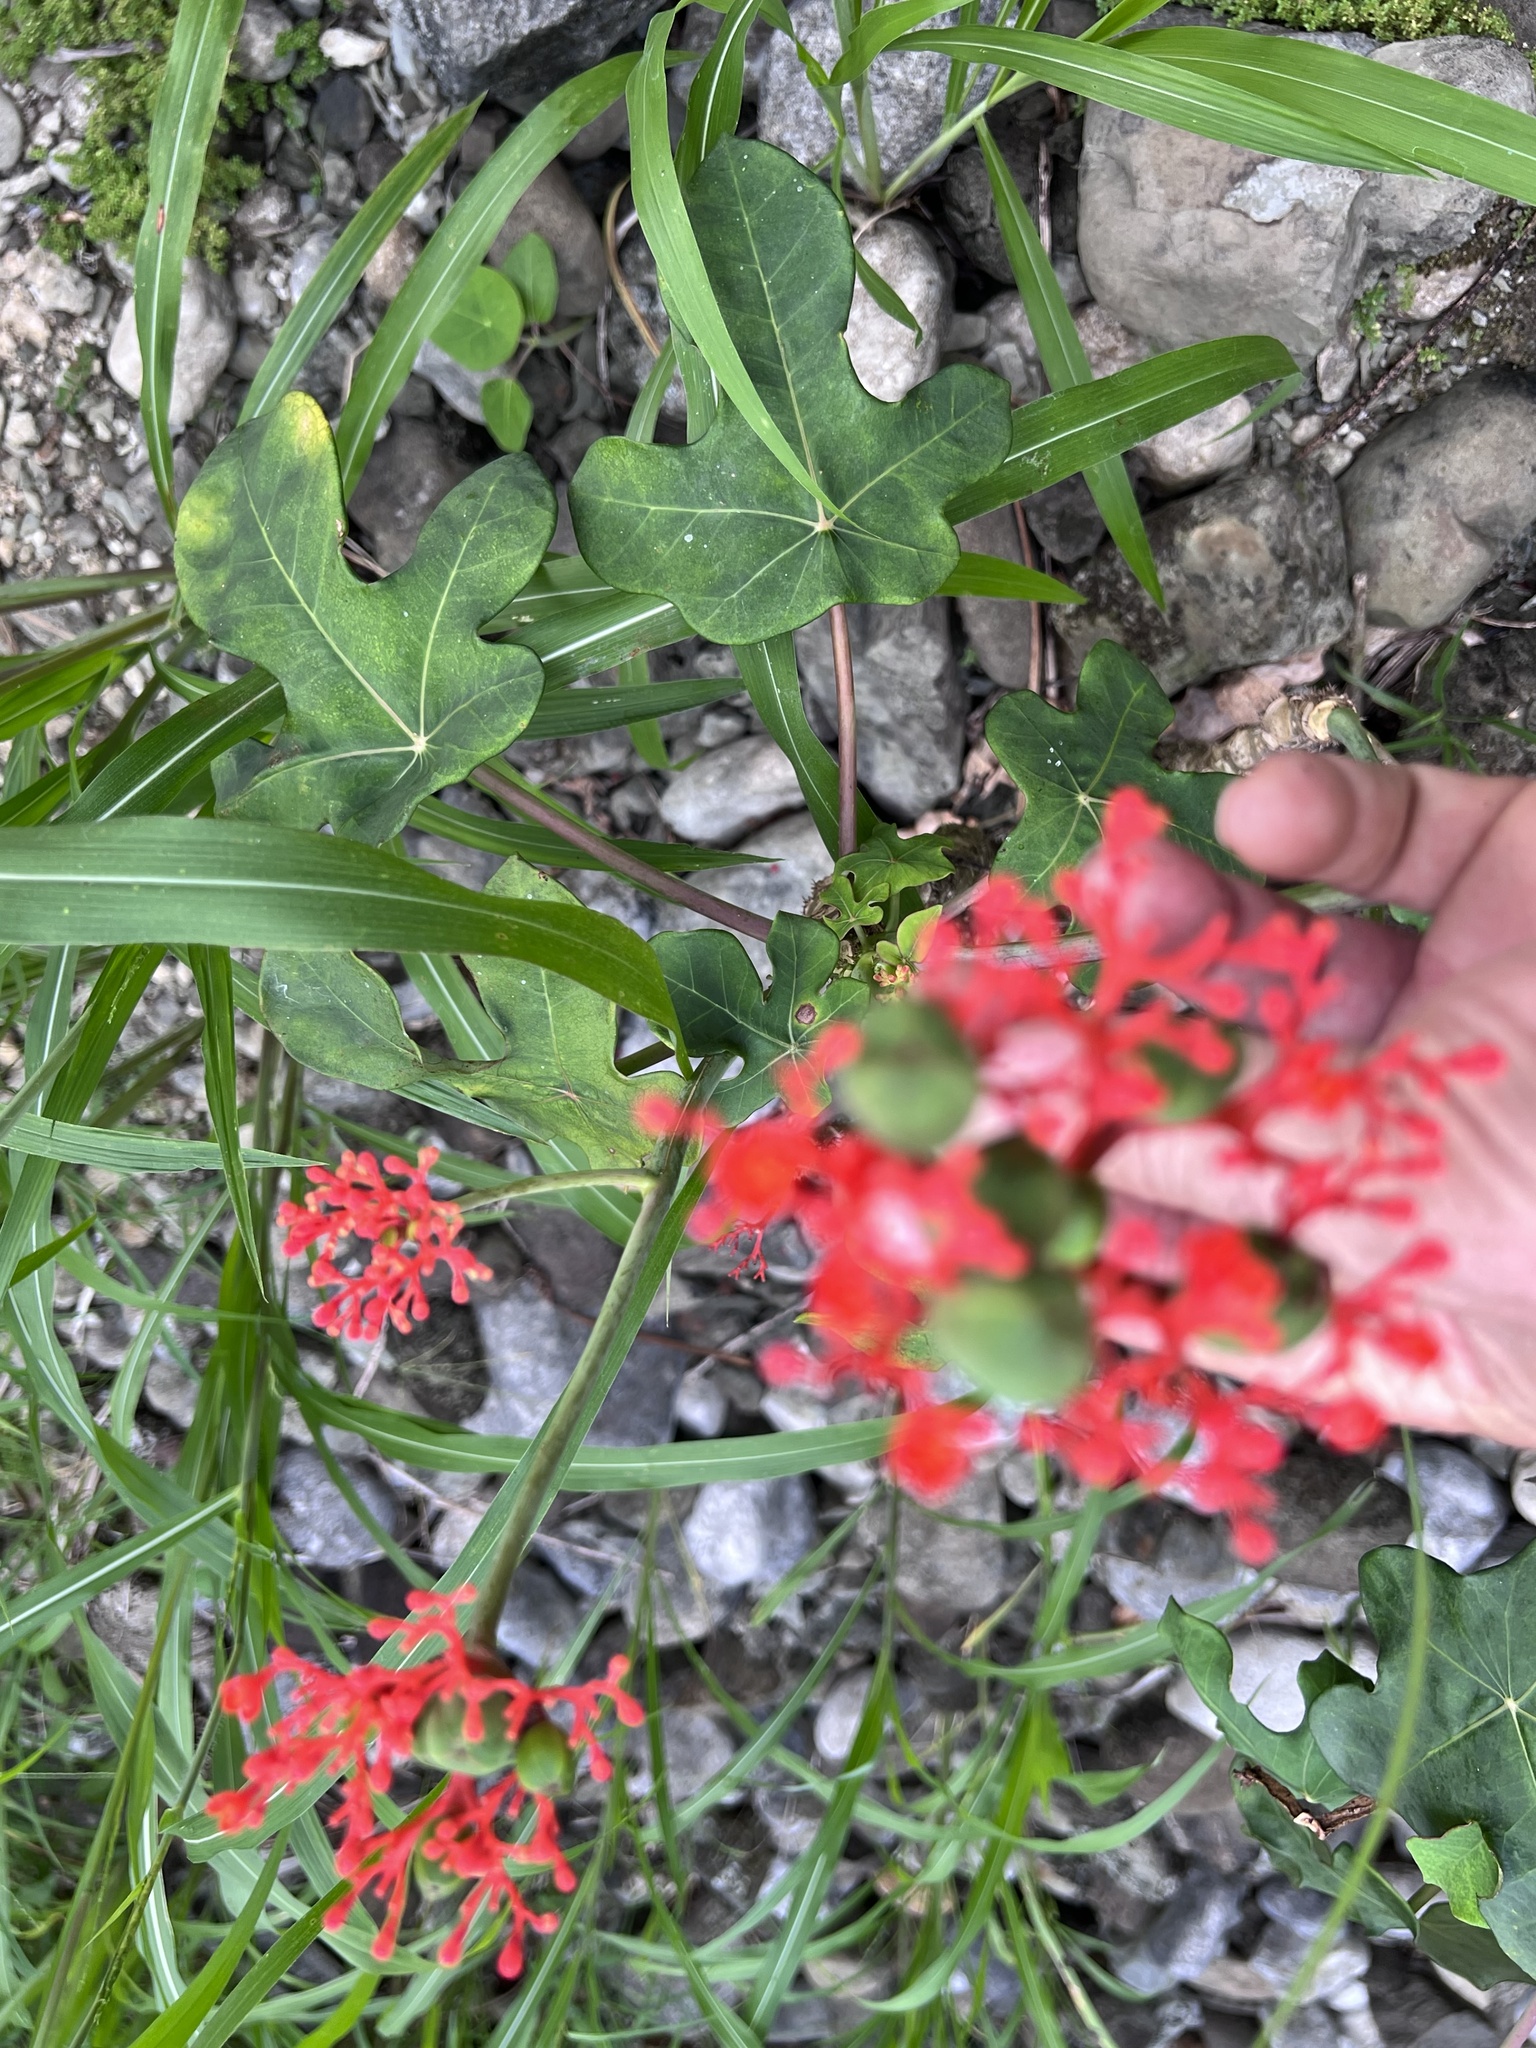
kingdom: Plantae
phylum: Tracheophyta
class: Magnoliopsida
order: Malpighiales
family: Euphorbiaceae
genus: Jatropha
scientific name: Jatropha podagrica
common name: Gout stalk
